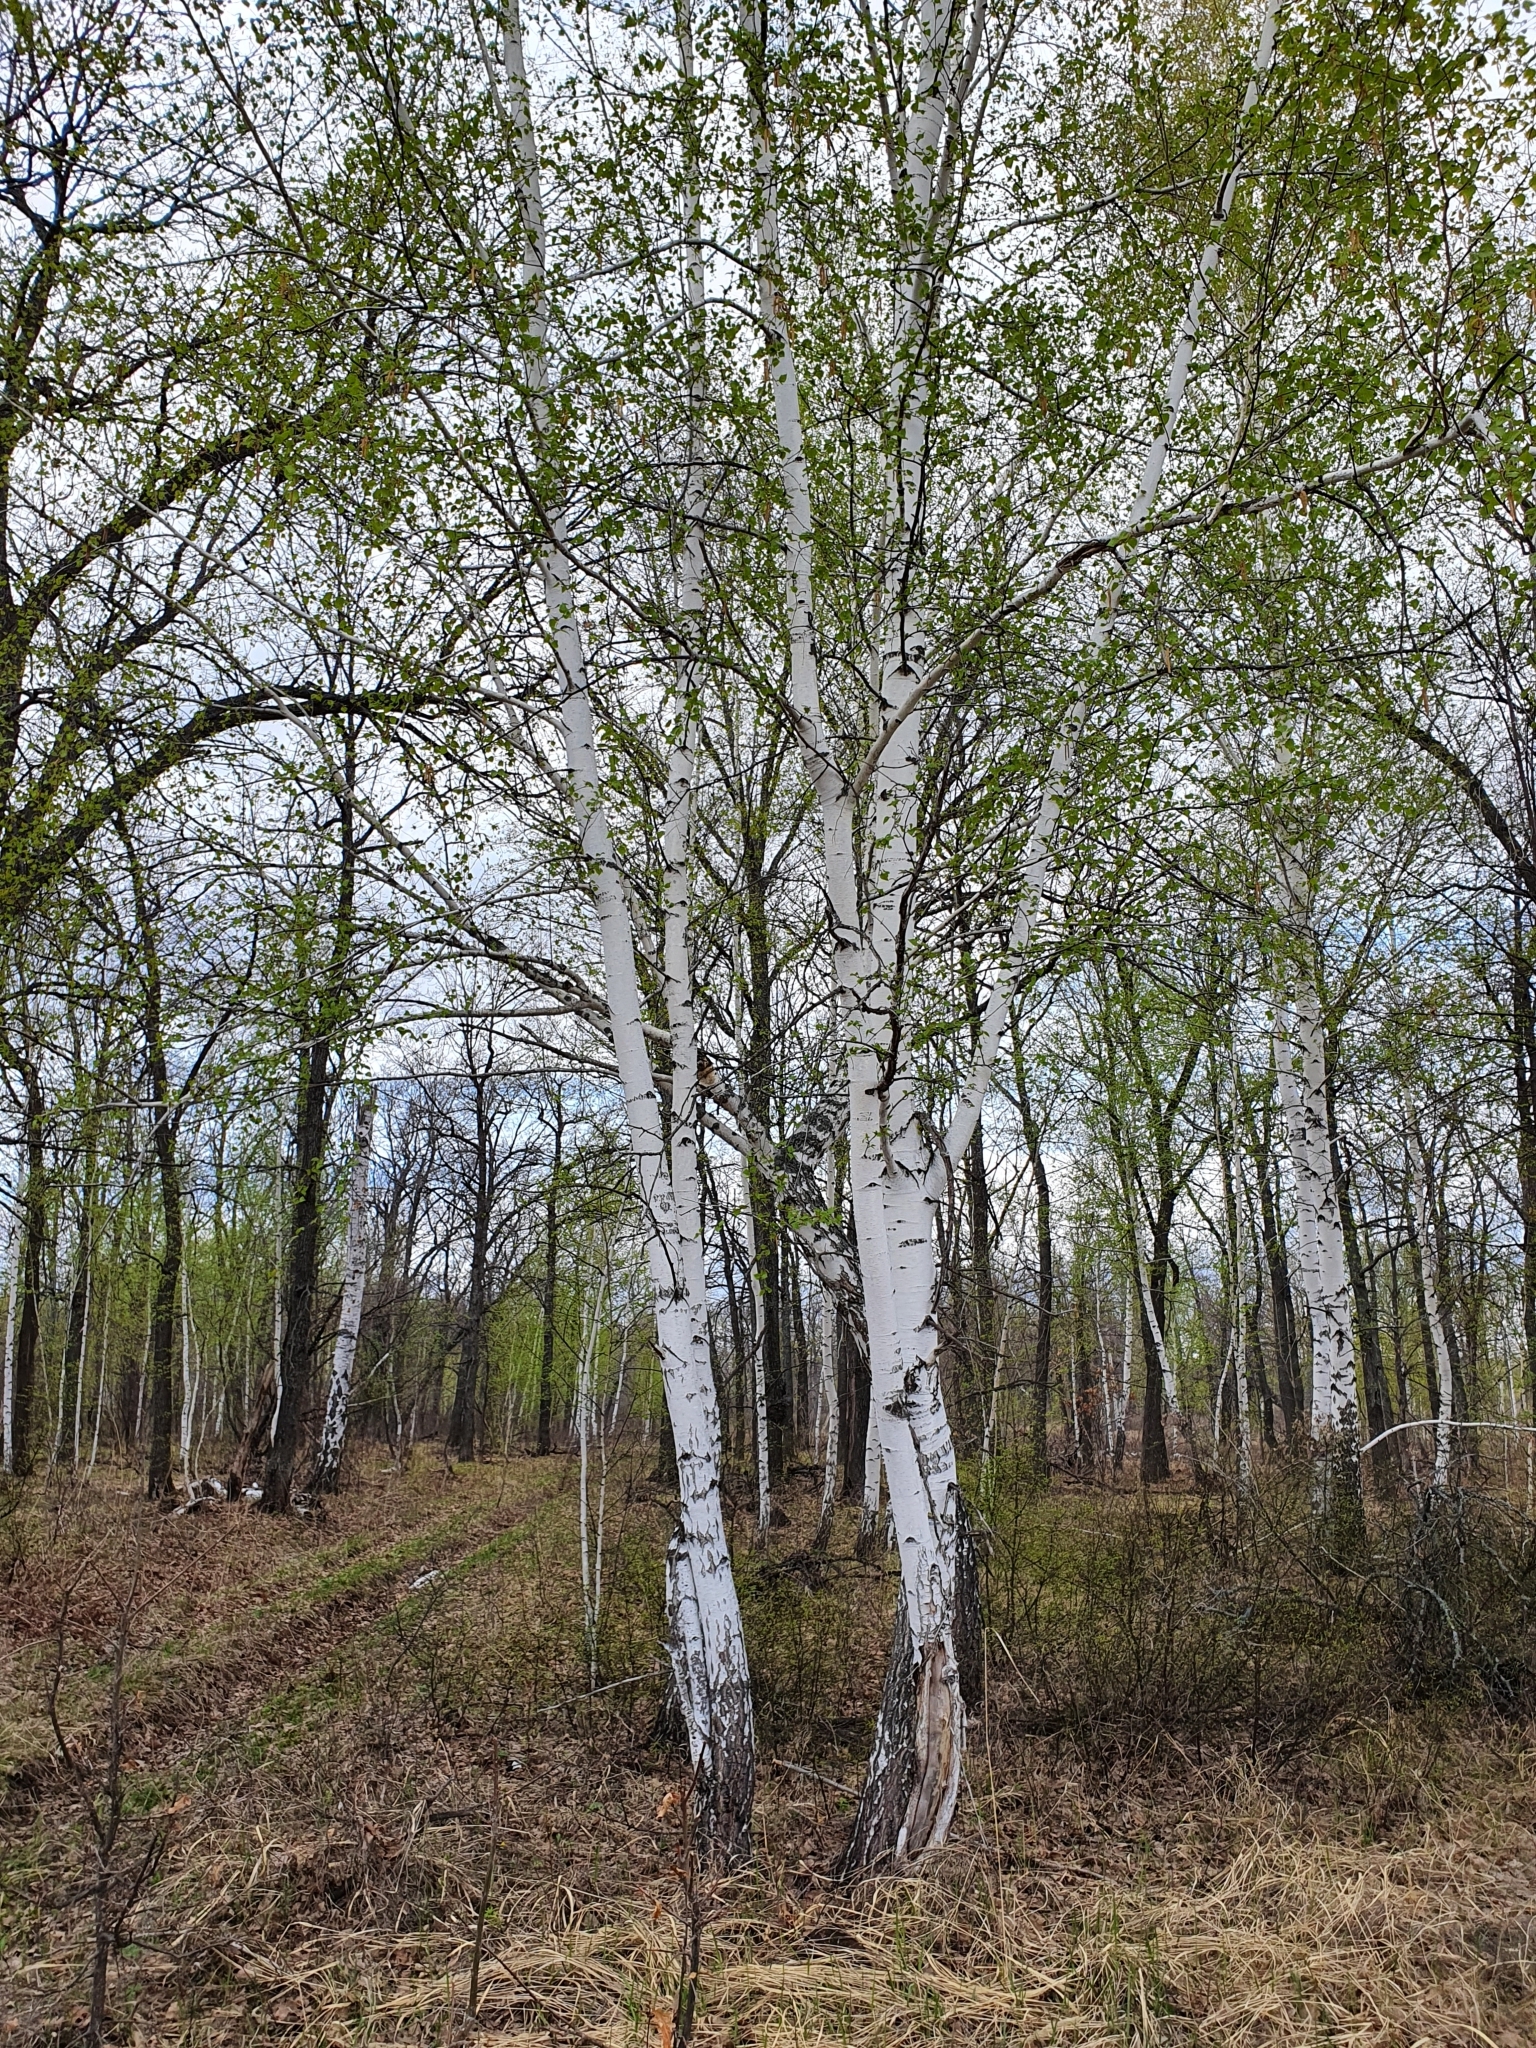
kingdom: Plantae
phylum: Tracheophyta
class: Magnoliopsida
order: Fagales
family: Betulaceae
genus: Betula
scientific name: Betula pendula
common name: Silver birch
